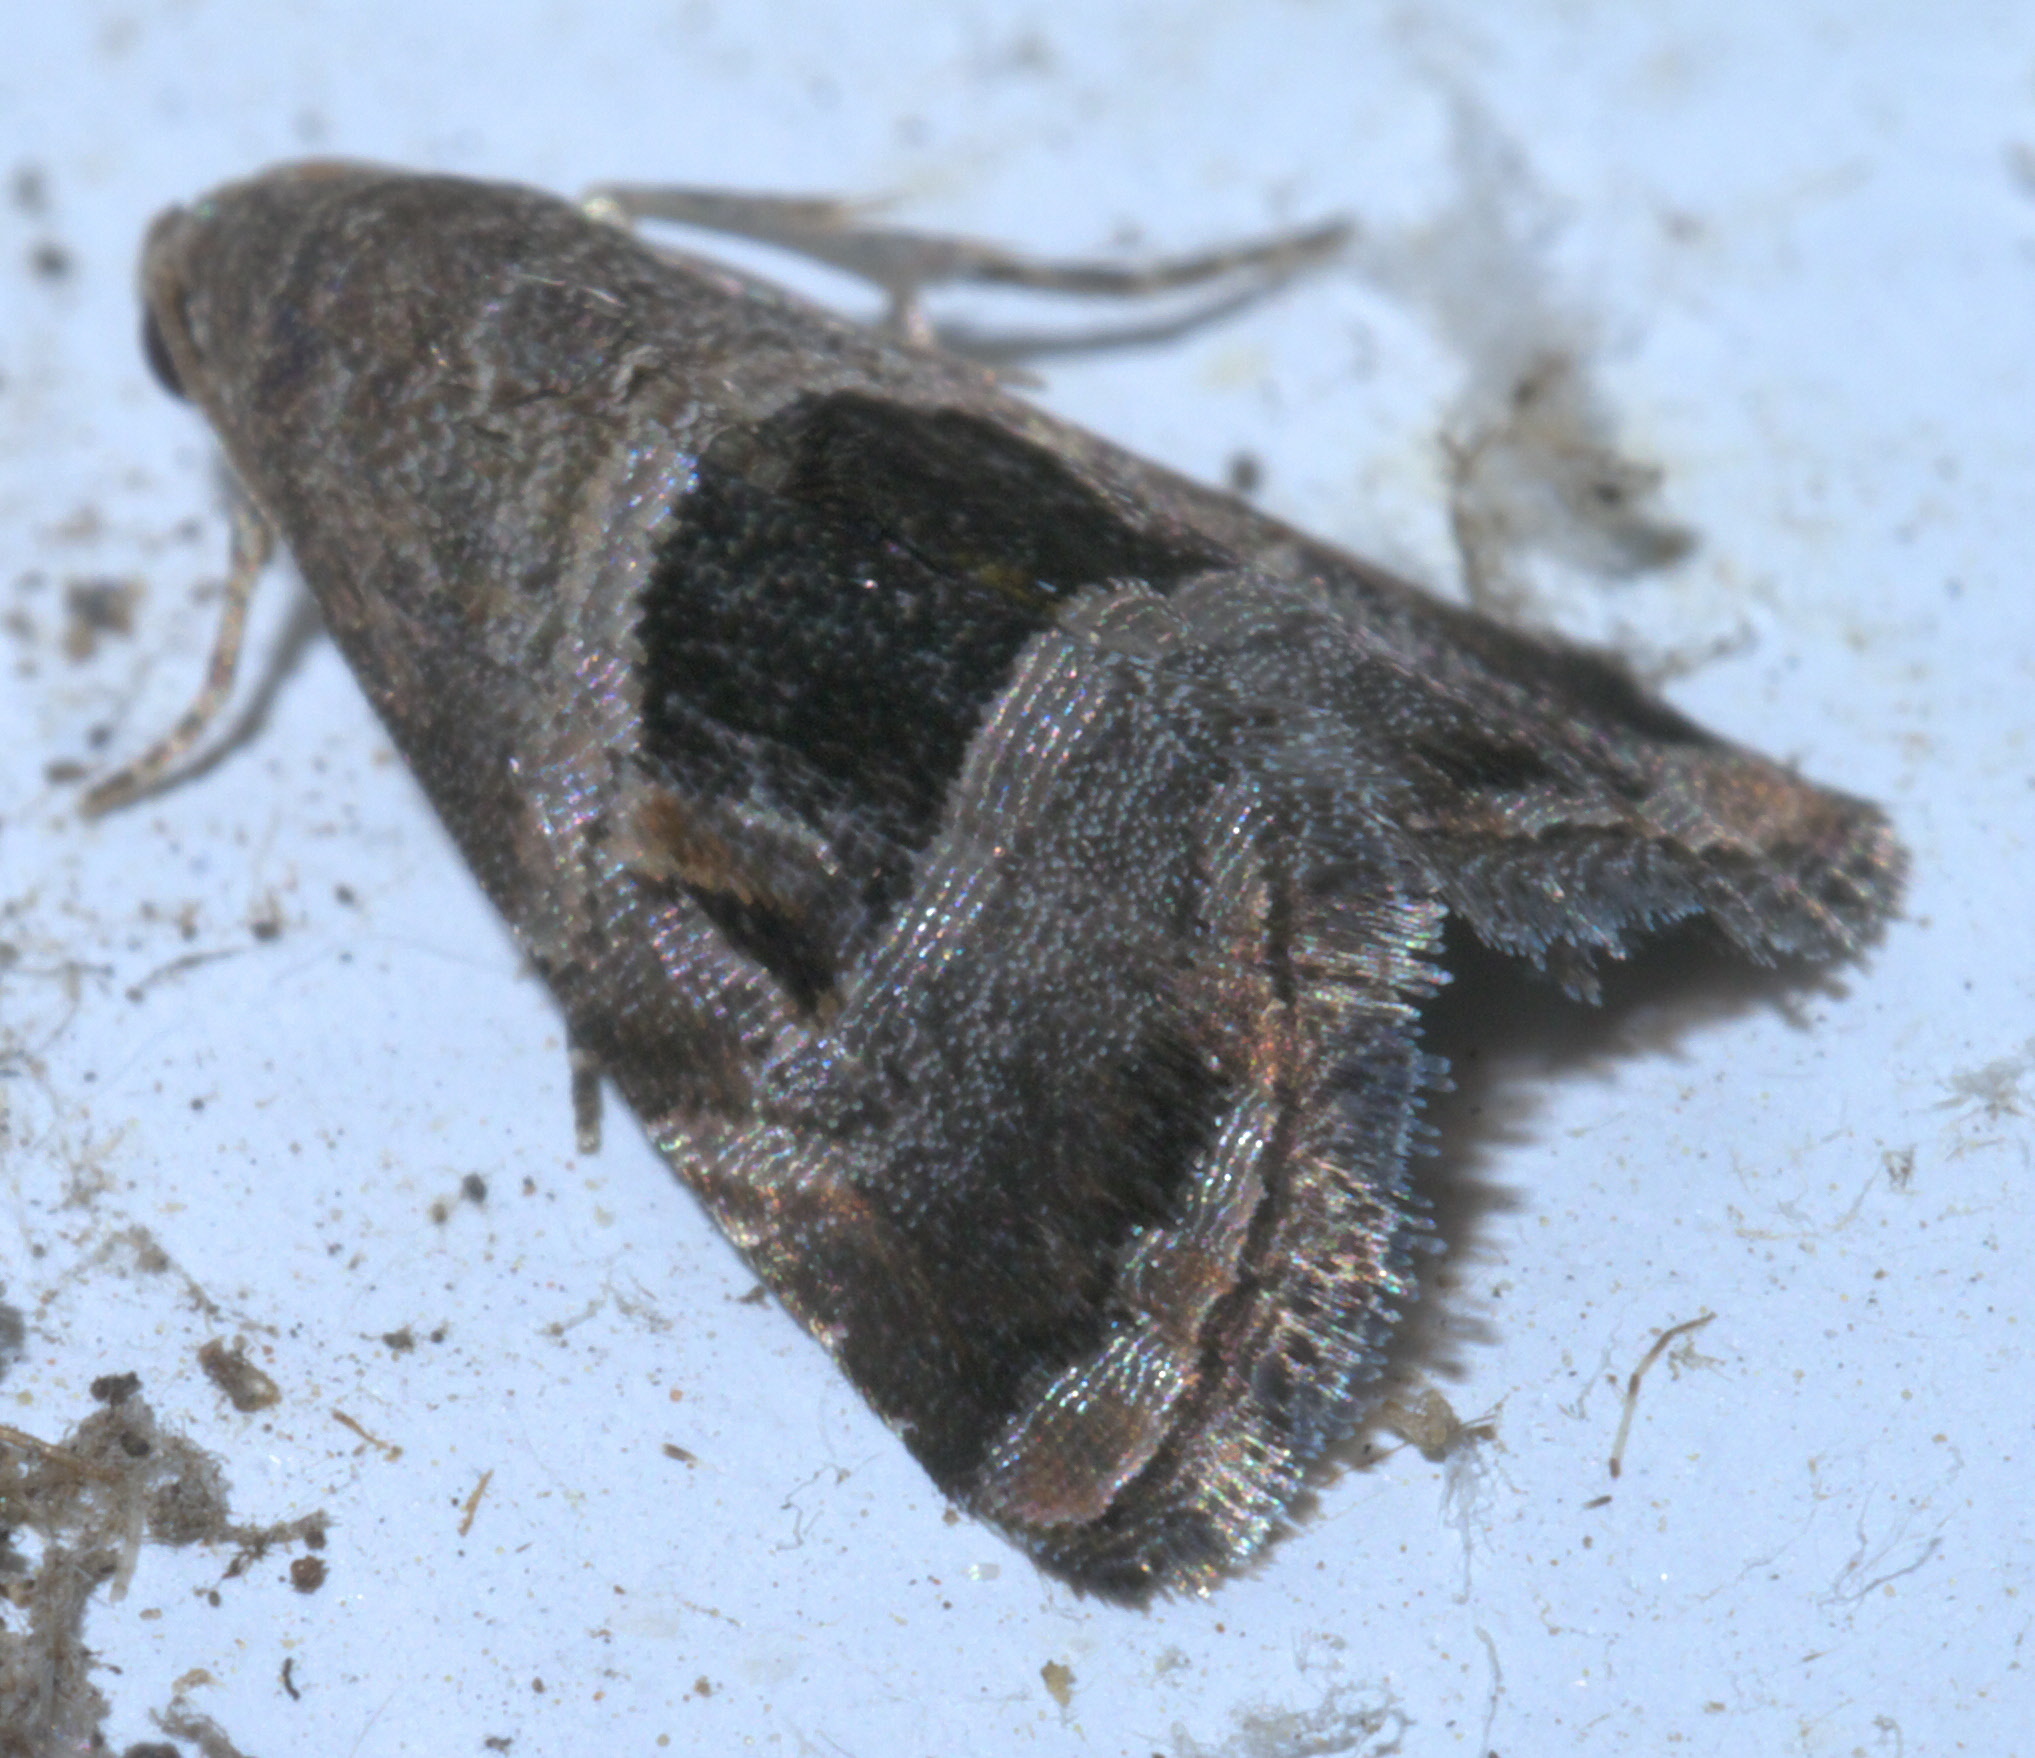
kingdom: Animalia
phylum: Arthropoda
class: Insecta
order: Lepidoptera
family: Noctuidae
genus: Tripudia
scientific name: Tripudia rectangula
